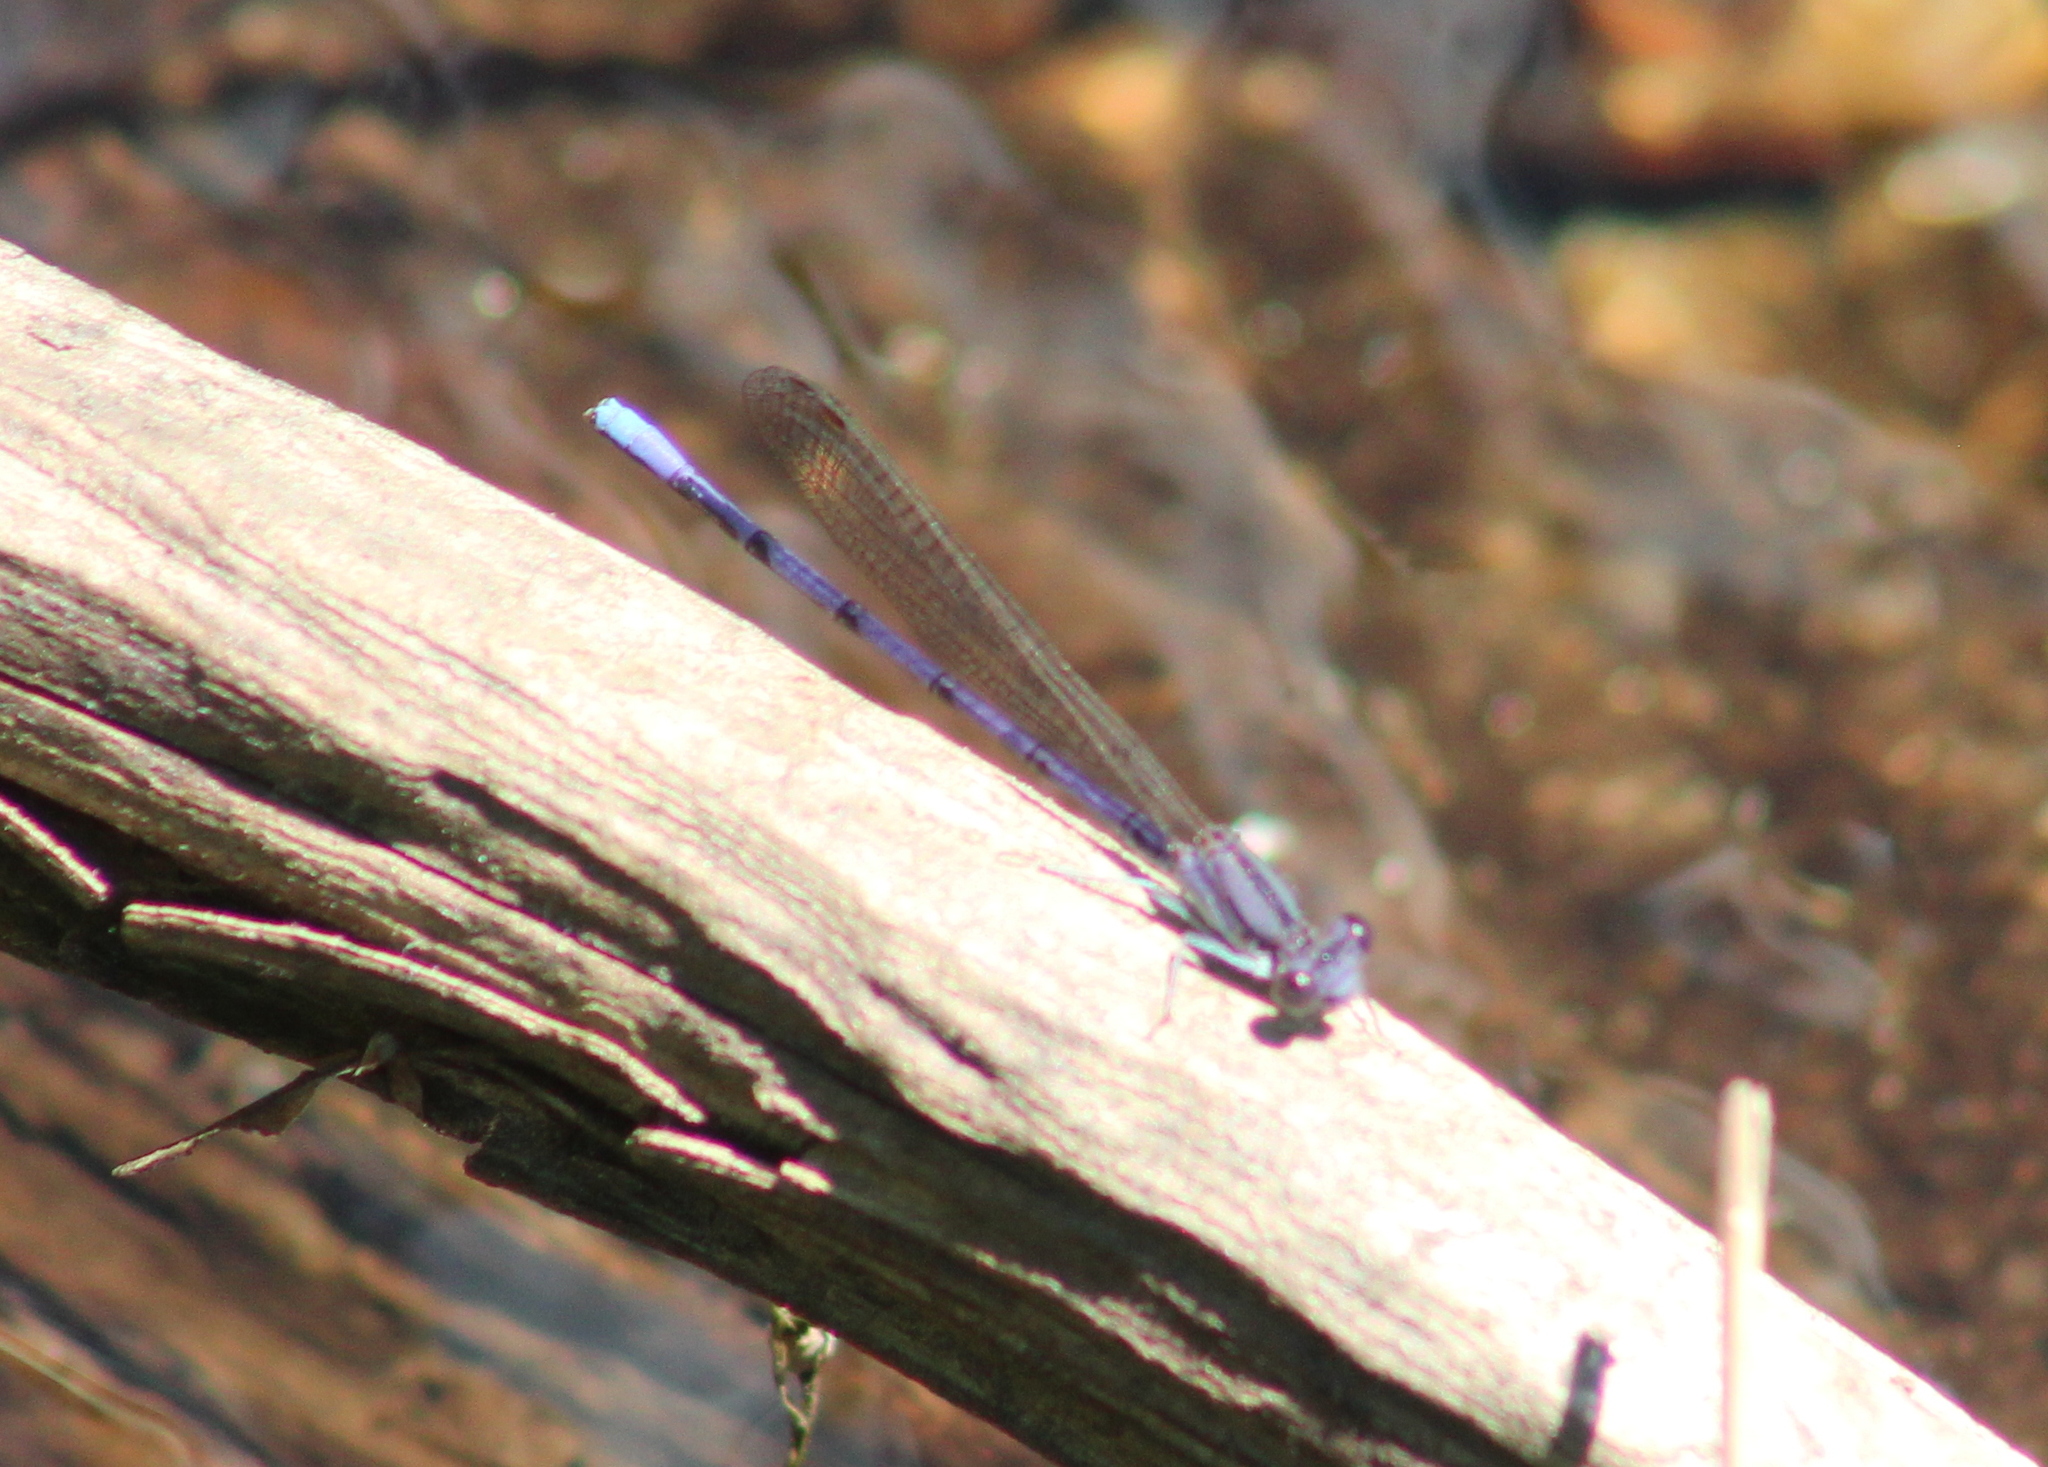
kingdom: Animalia
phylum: Arthropoda
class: Insecta
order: Odonata
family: Coenagrionidae
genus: Argia
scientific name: Argia fumipennis
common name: Variable dancer
